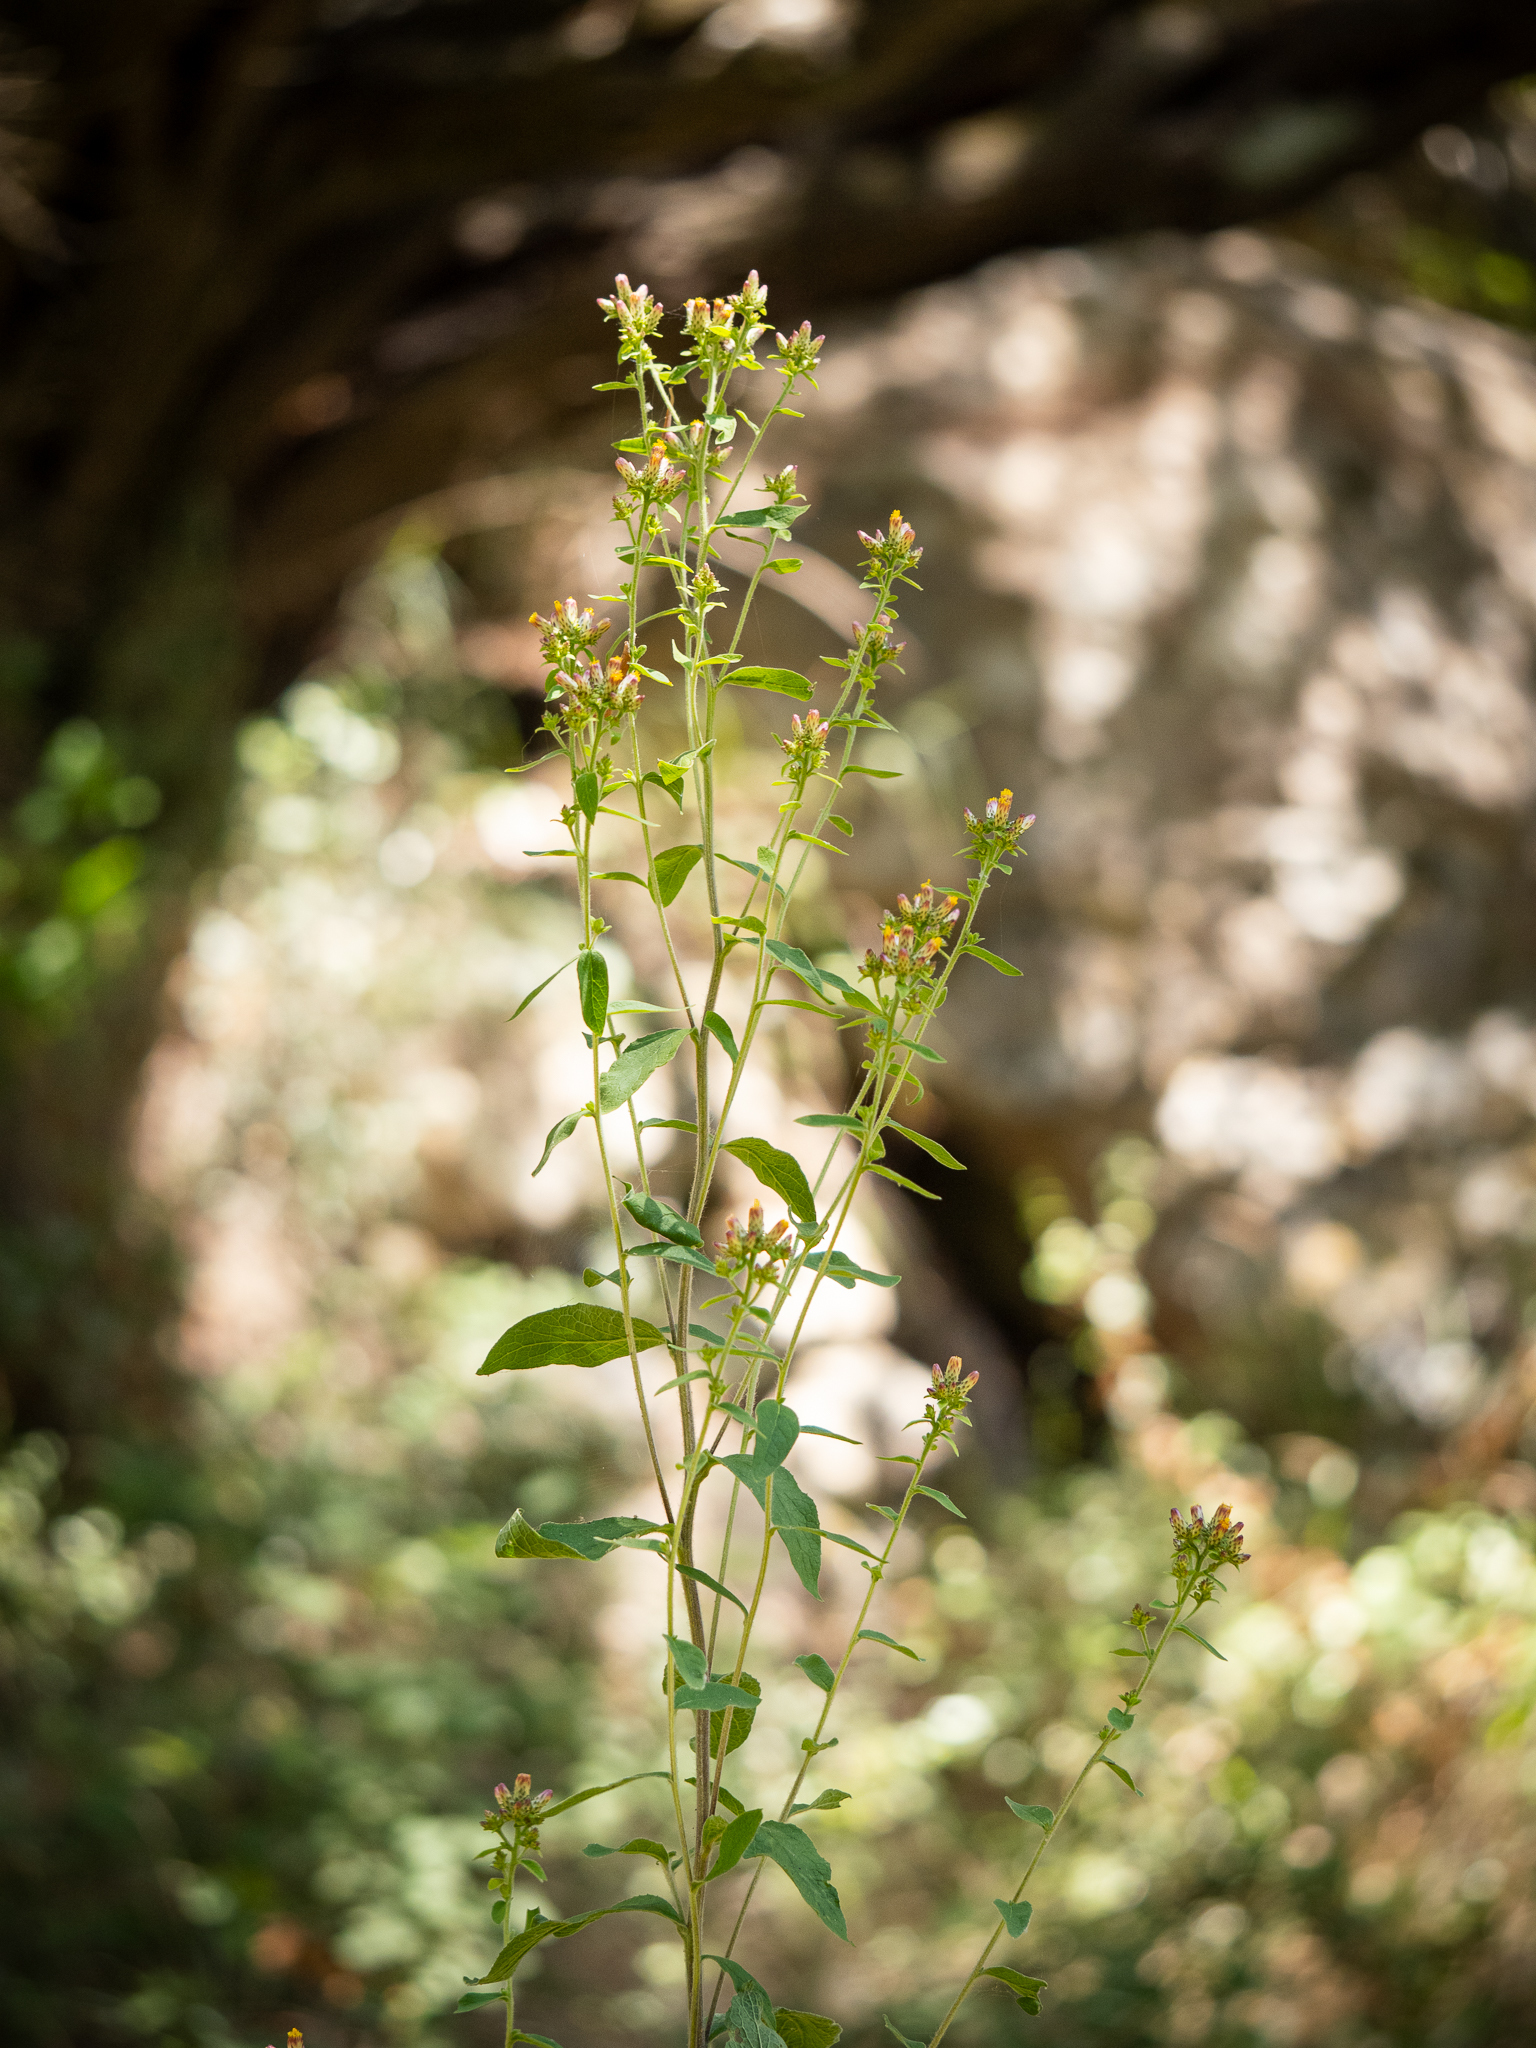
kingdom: Plantae
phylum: Tracheophyta
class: Magnoliopsida
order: Asterales
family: Asteraceae
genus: Pentanema
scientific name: Pentanema squarrosum
